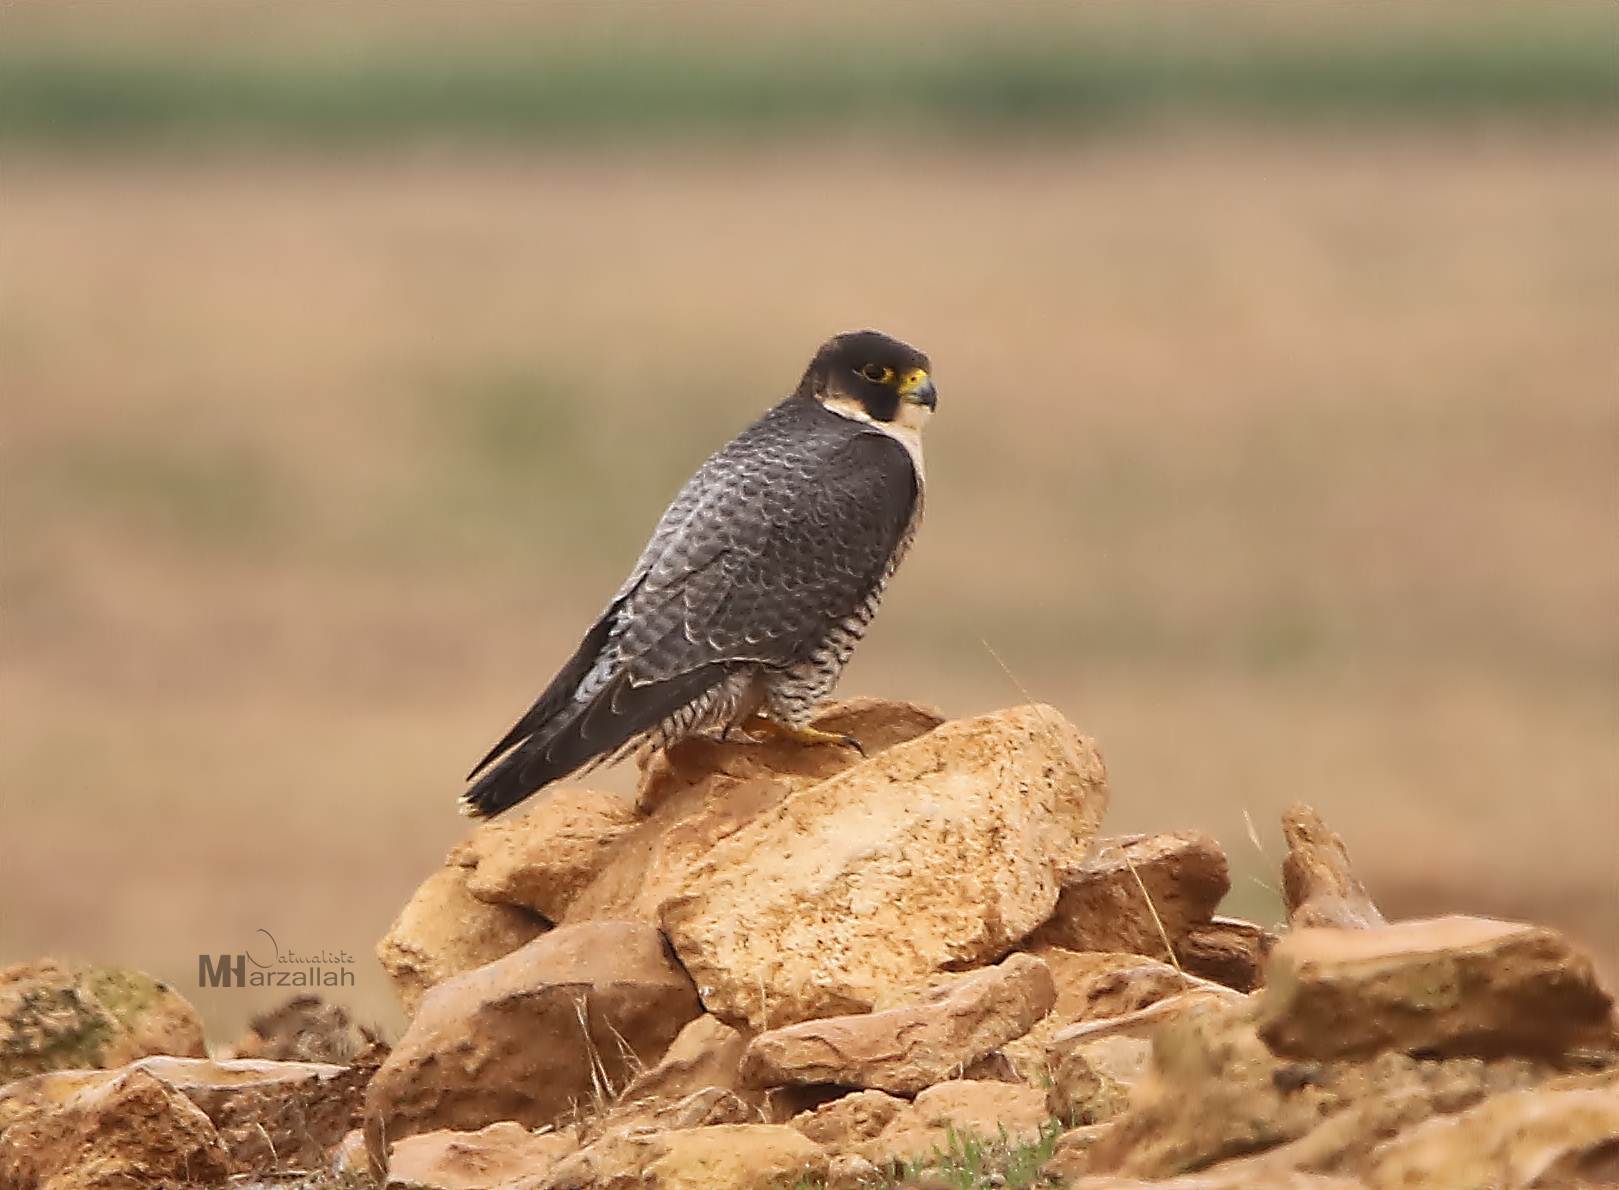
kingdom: Animalia
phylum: Chordata
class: Aves
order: Falconiformes
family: Falconidae
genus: Falco
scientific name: Falco peregrinus
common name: Peregrine falcon
